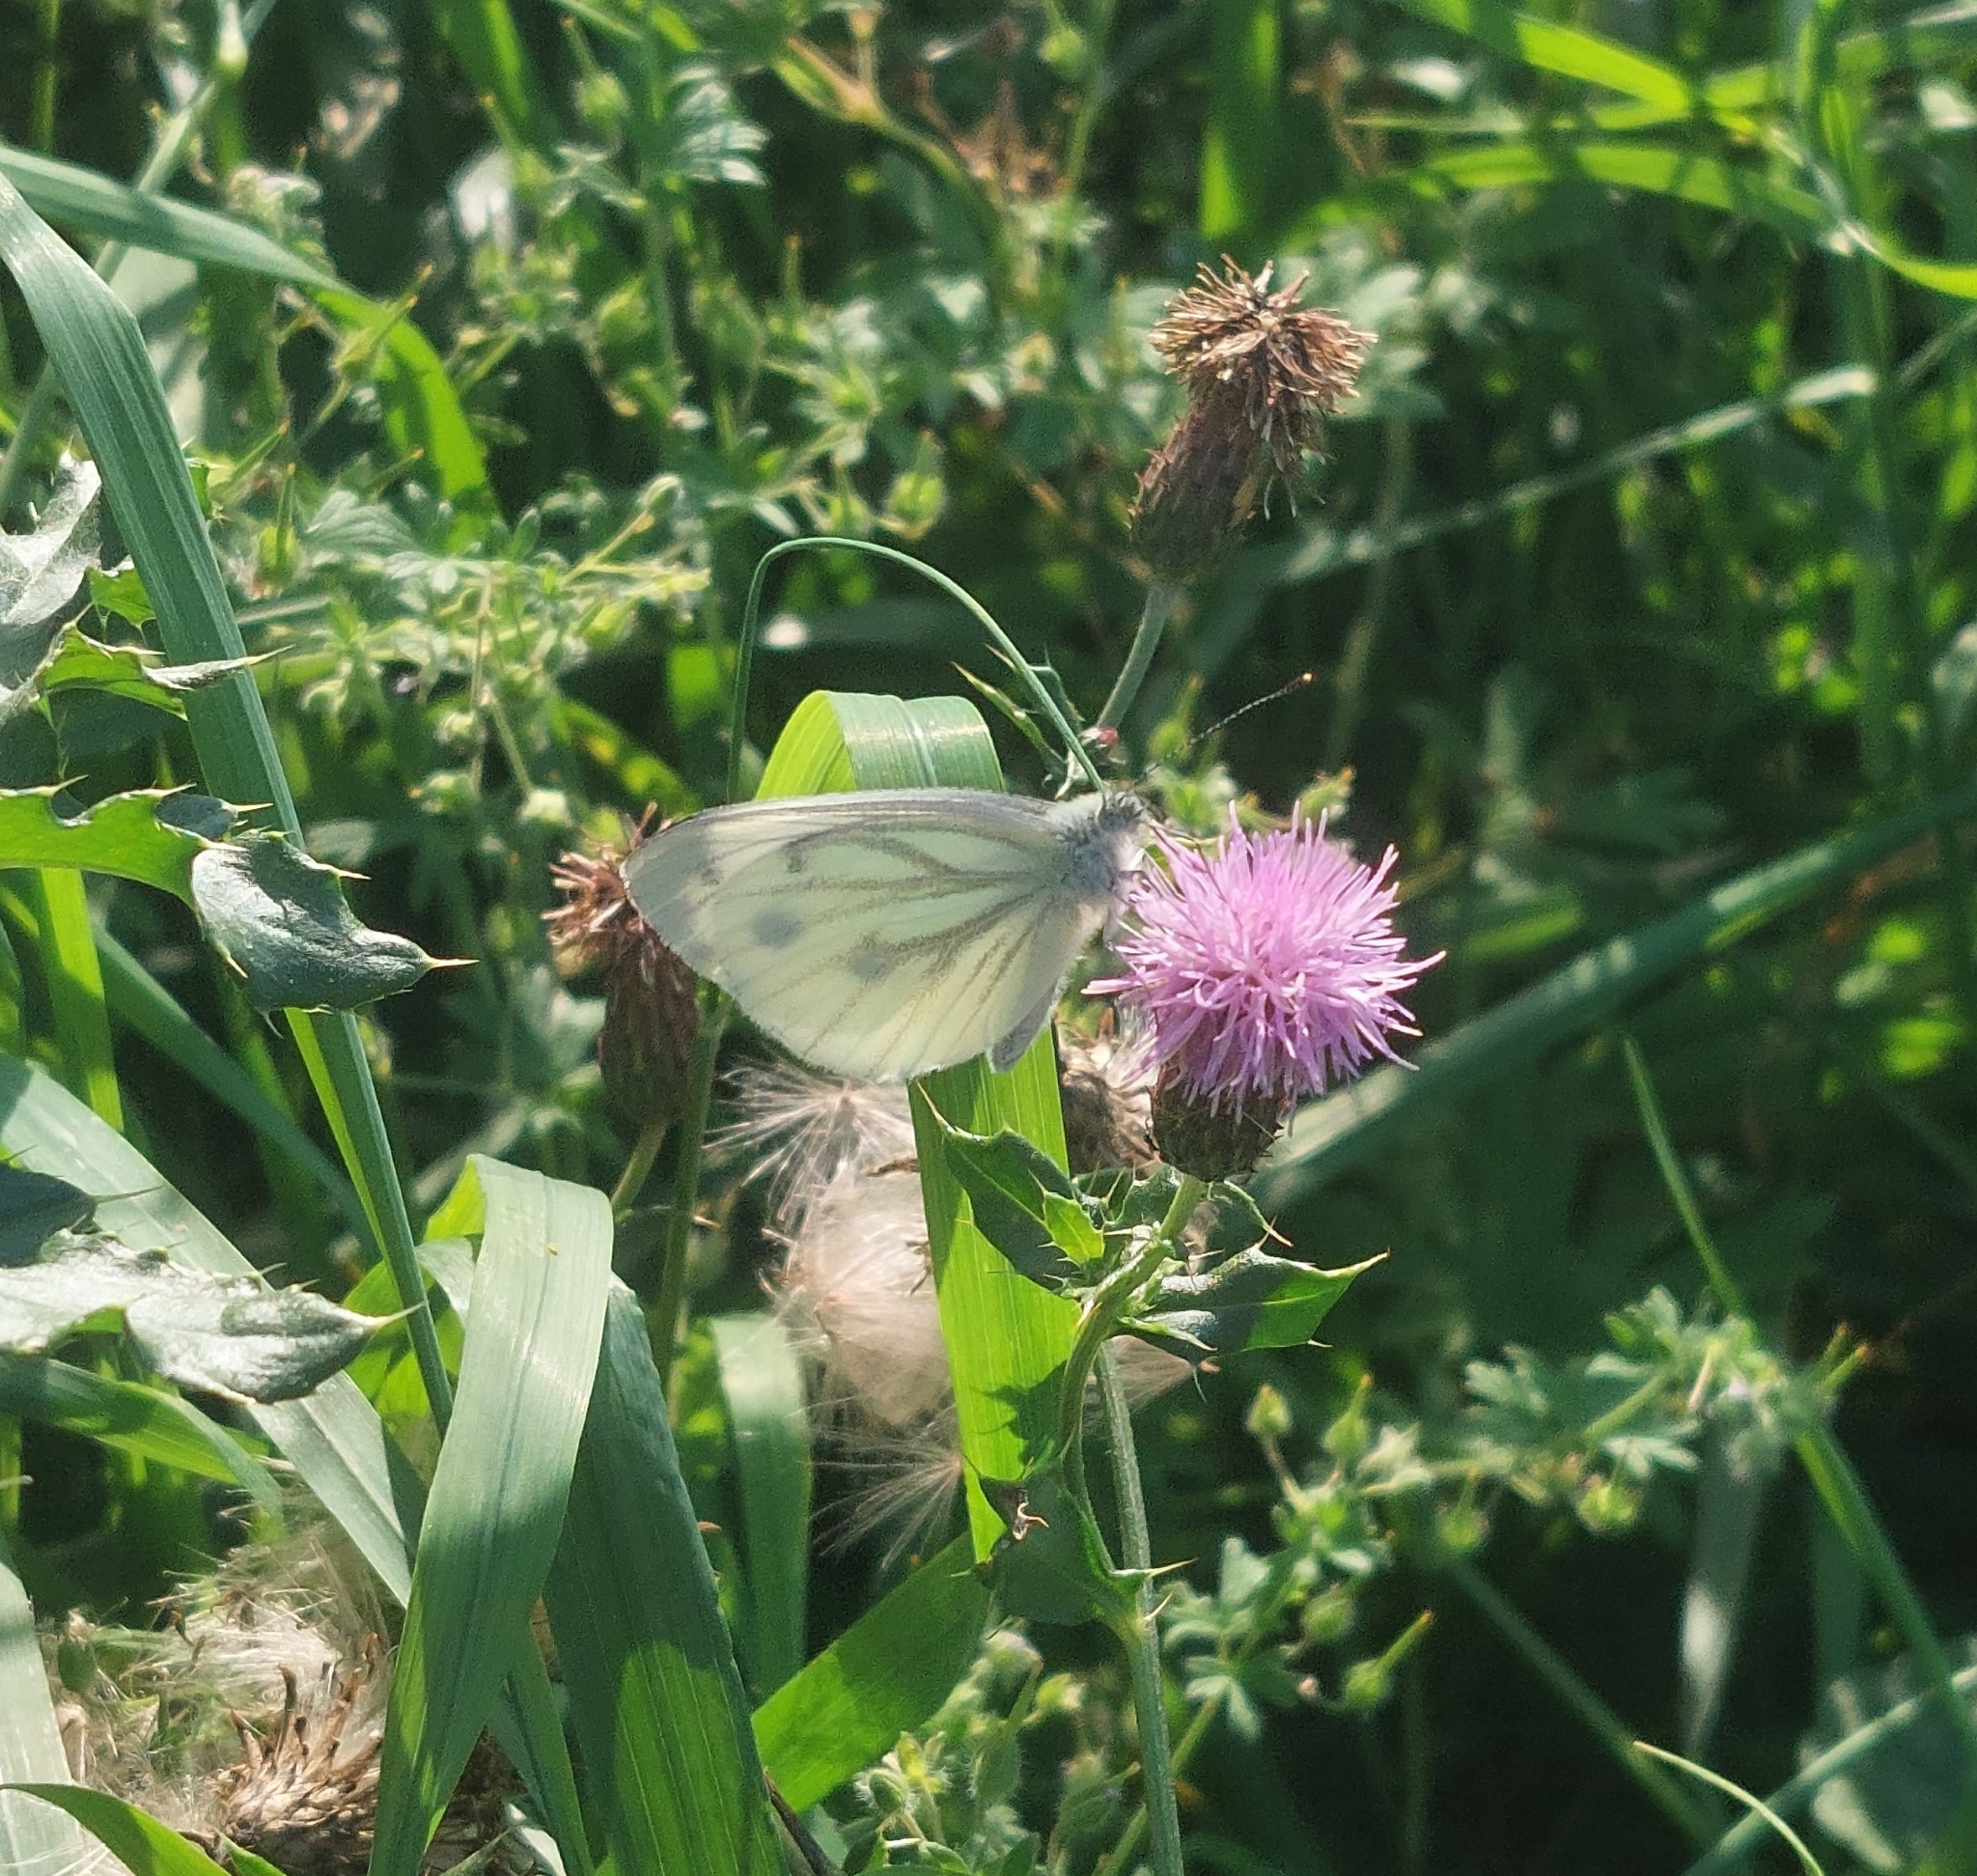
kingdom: Animalia
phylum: Arthropoda
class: Insecta
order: Lepidoptera
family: Pieridae
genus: Pieris
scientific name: Pieris napi
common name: Green-veined white
